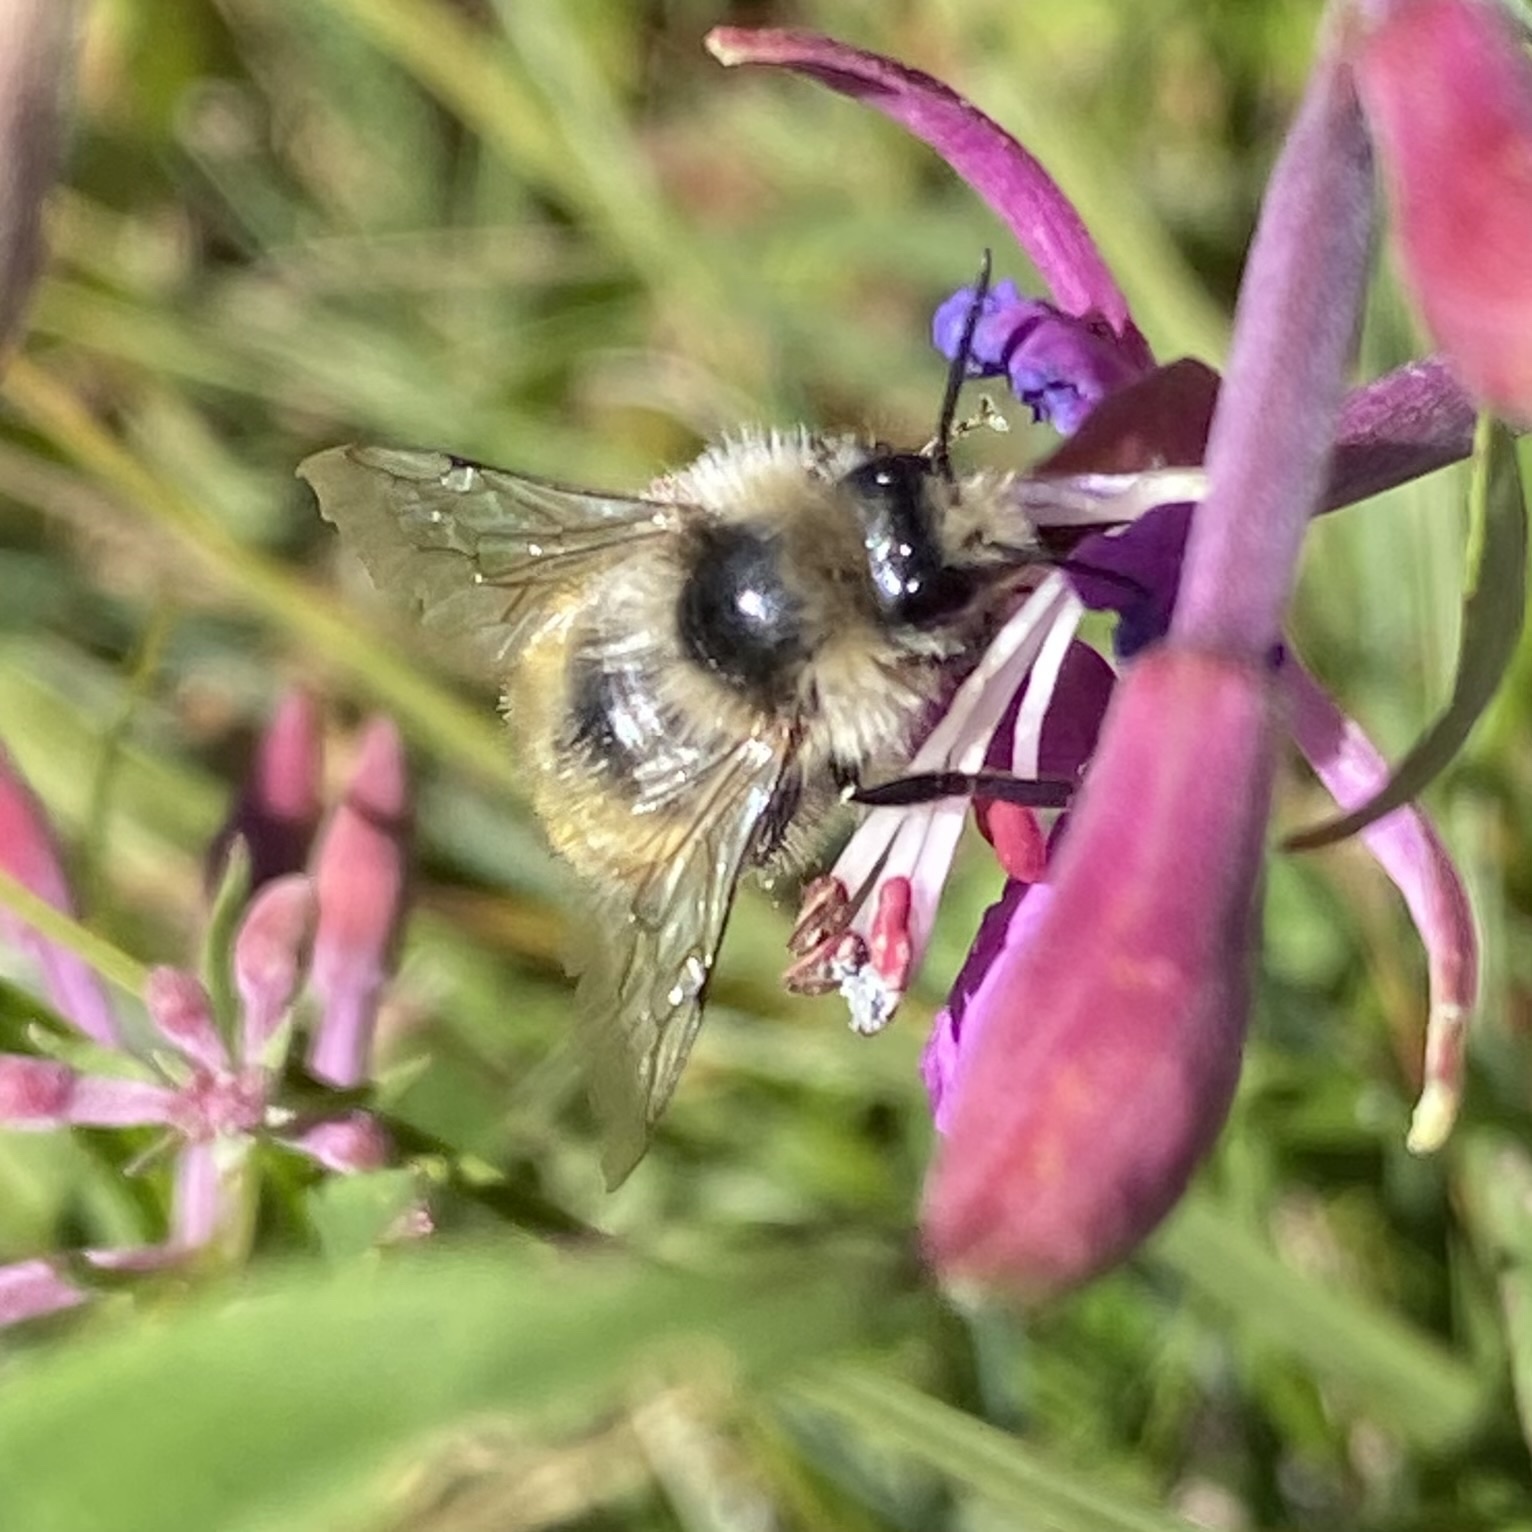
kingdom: Animalia
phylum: Arthropoda
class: Insecta
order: Hymenoptera
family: Apidae
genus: Bombus
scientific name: Bombus sylvicola
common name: Forest bumble bee
